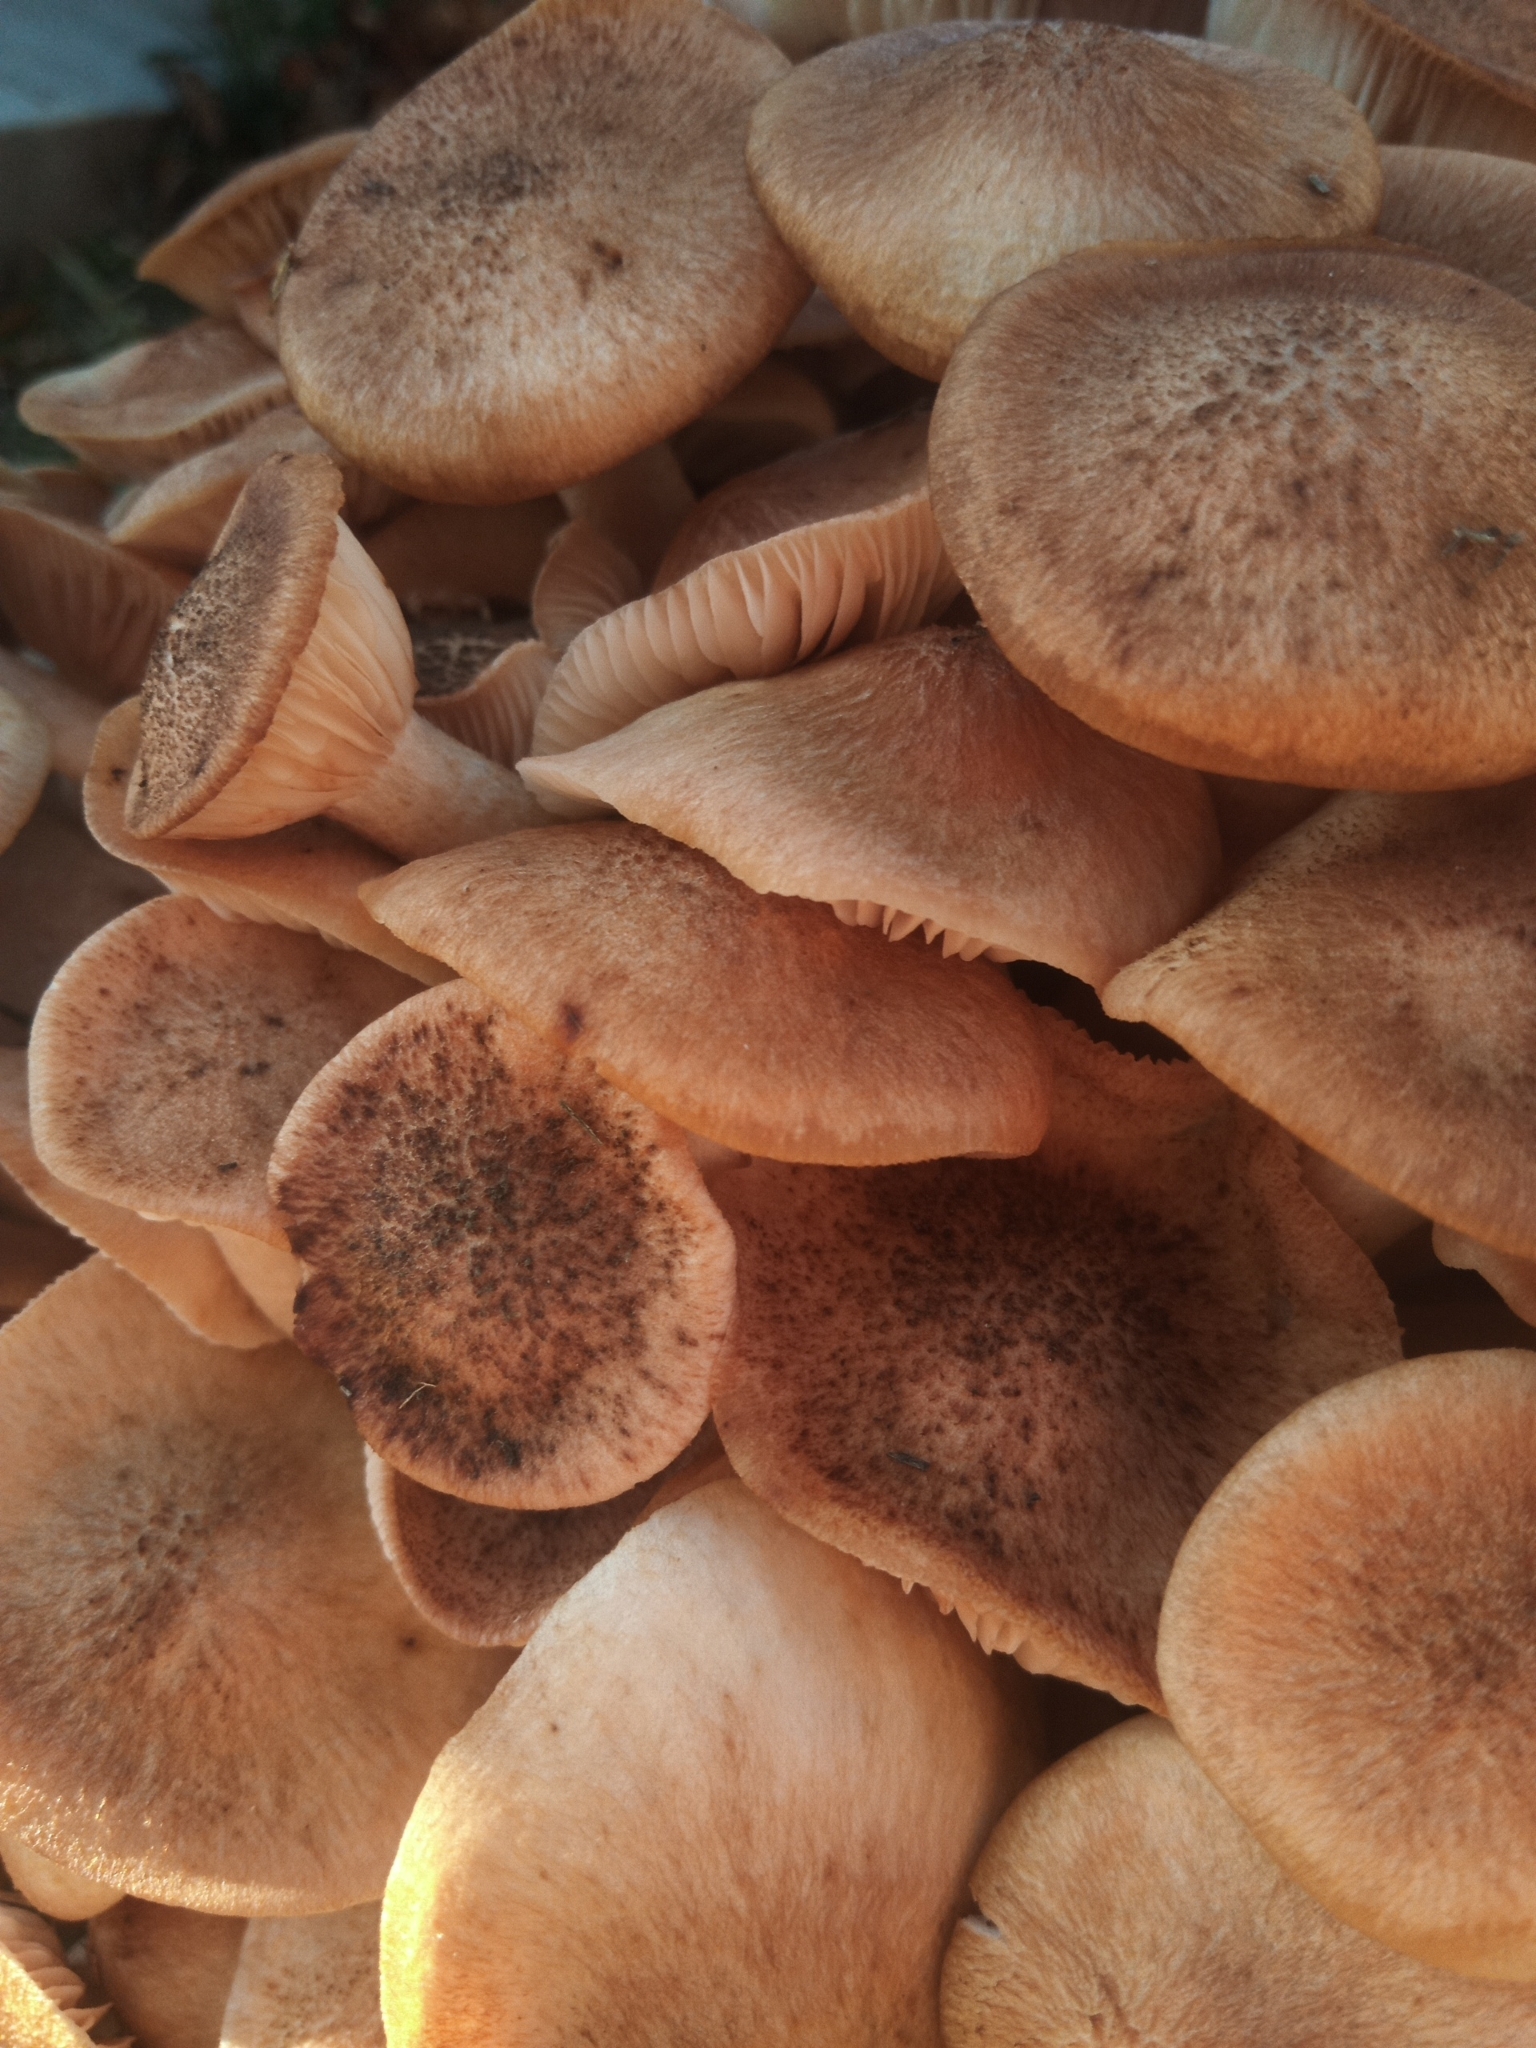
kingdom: Fungi
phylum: Basidiomycota
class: Agaricomycetes
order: Agaricales
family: Physalacriaceae
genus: Desarmillaria
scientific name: Desarmillaria caespitosa
